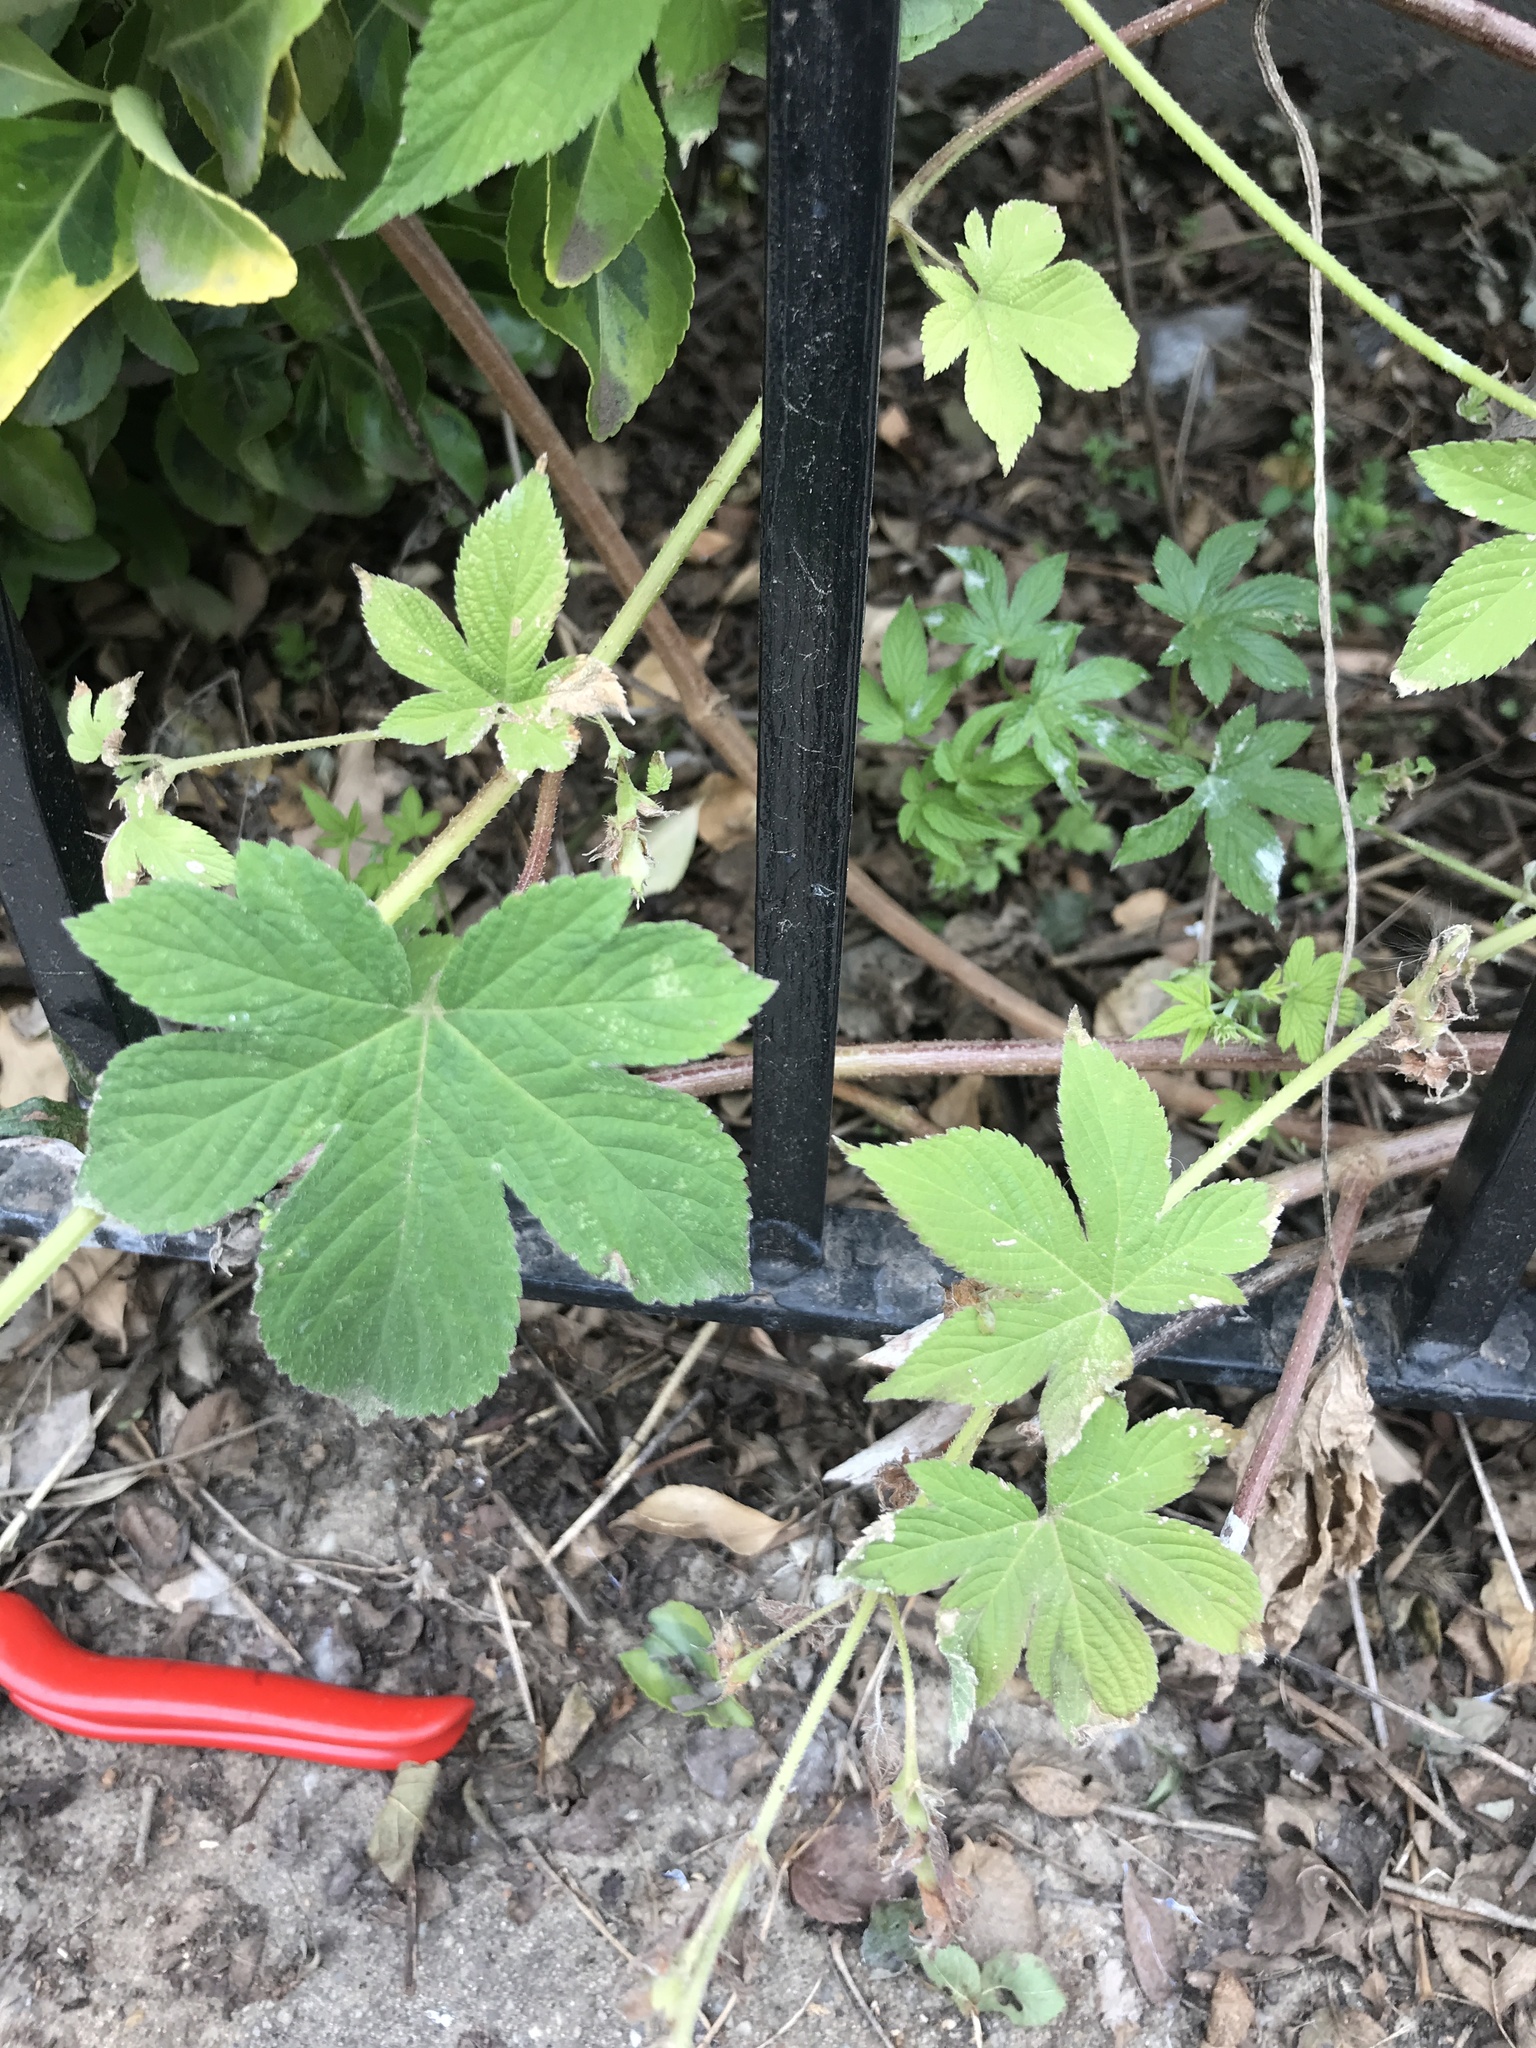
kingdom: Plantae
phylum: Tracheophyta
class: Magnoliopsida
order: Rosales
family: Cannabaceae
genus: Humulus
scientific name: Humulus scandens
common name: Japanese hop
